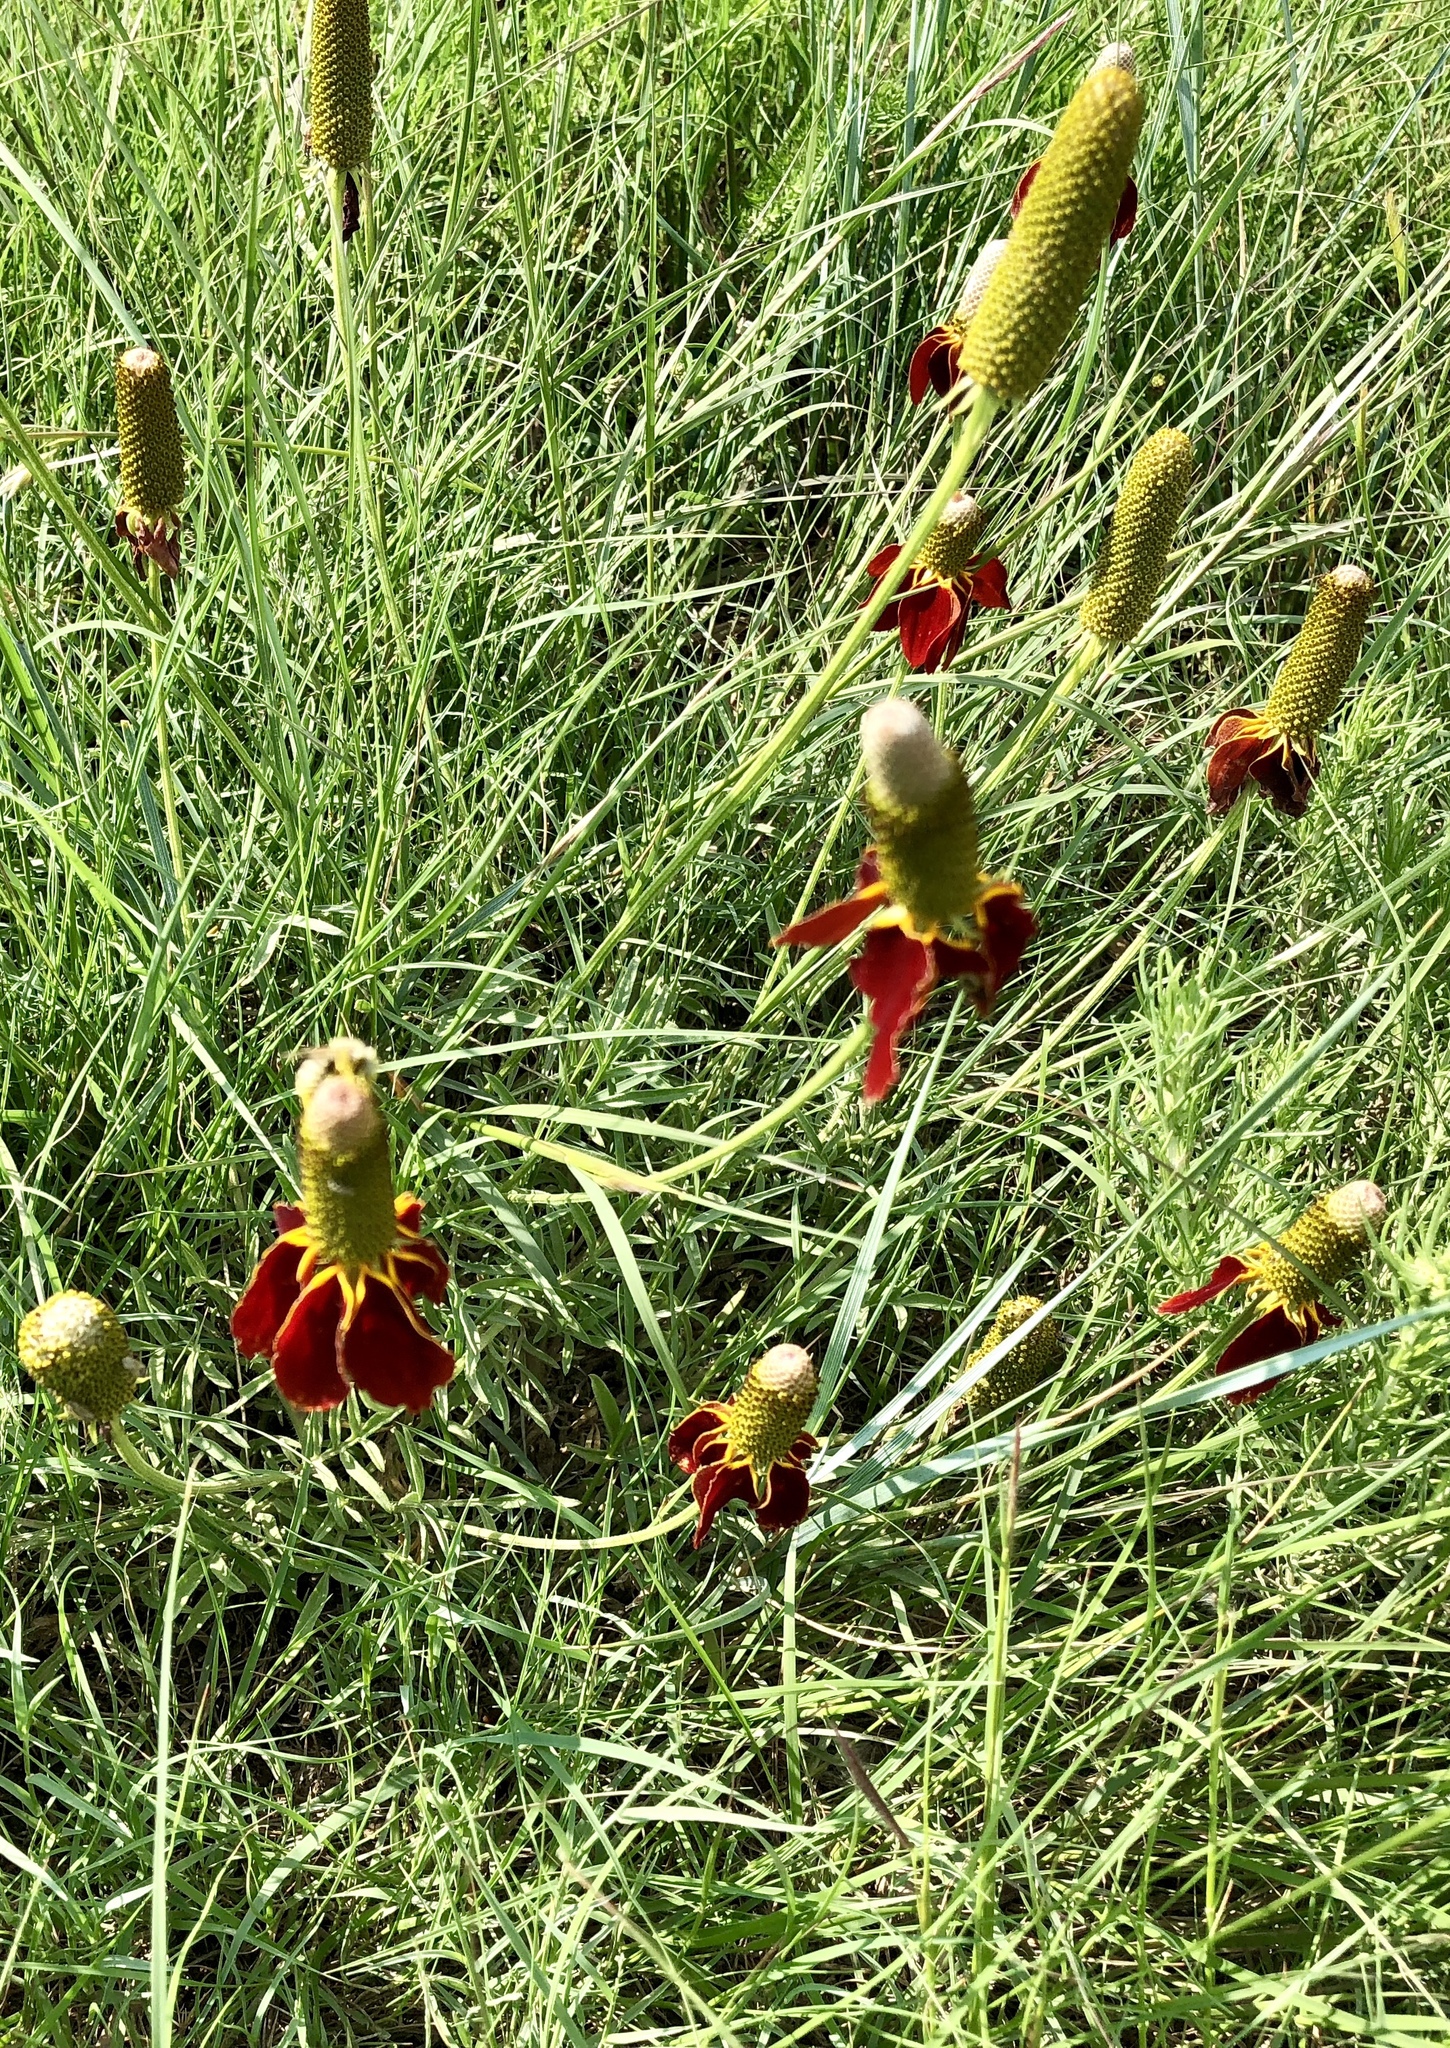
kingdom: Plantae
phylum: Tracheophyta
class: Magnoliopsida
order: Asterales
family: Asteraceae
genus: Ratibida
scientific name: Ratibida columnifera
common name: Prairie coneflower
